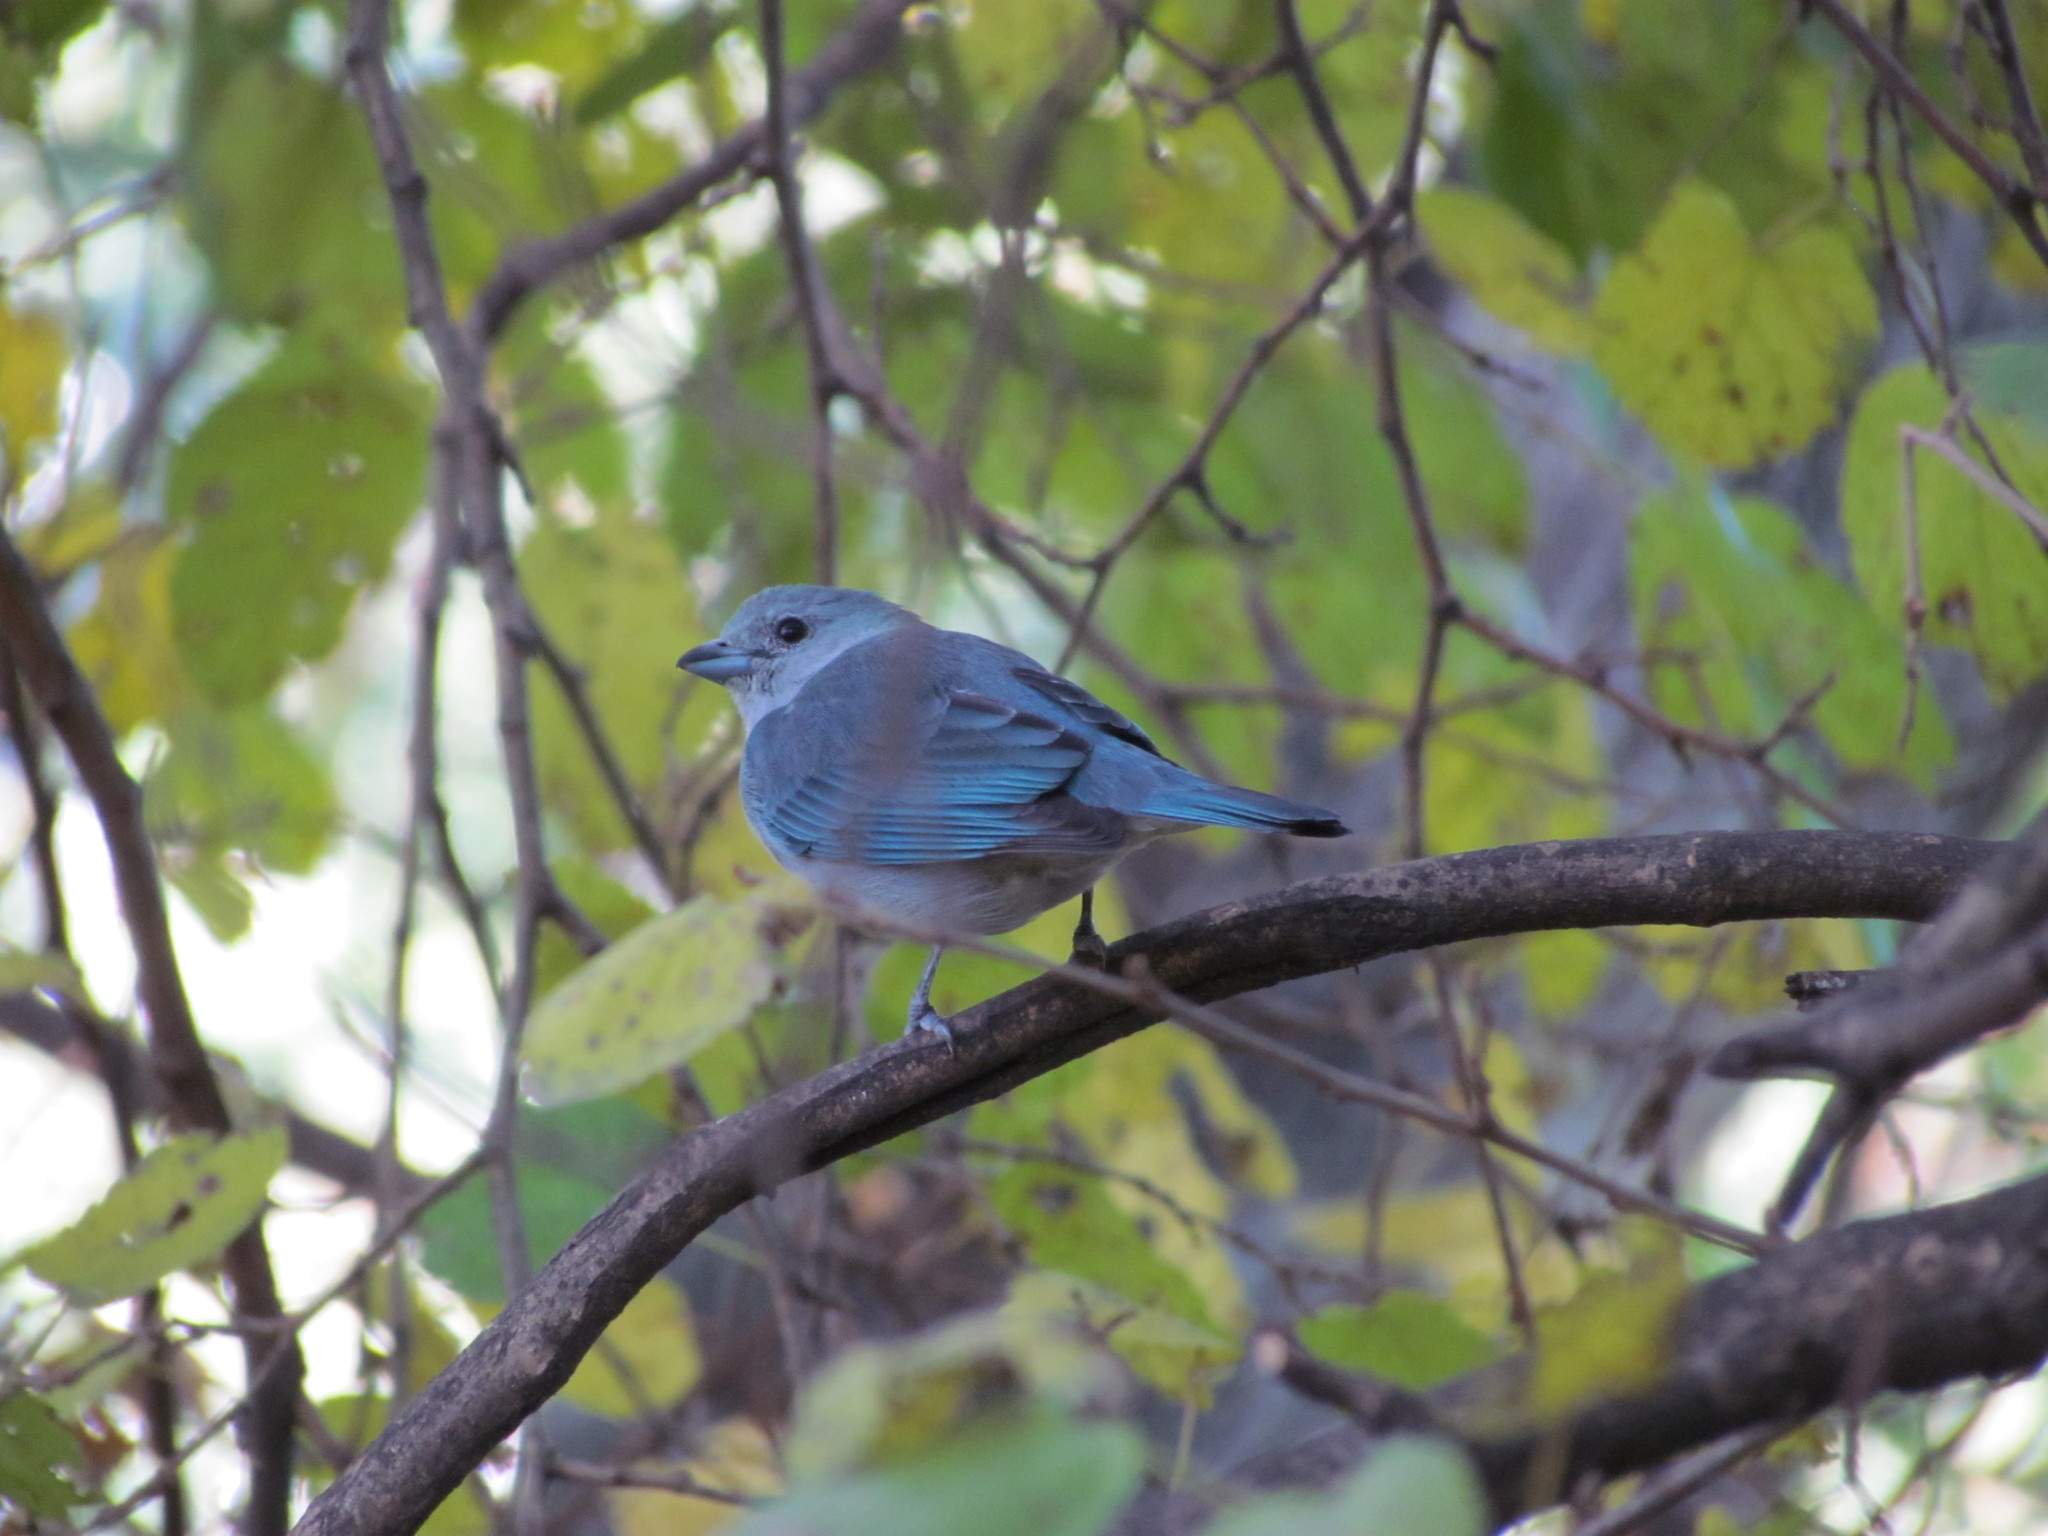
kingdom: Animalia
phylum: Chordata
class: Aves
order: Passeriformes
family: Thraupidae
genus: Thraupis
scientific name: Thraupis sayaca
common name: Sayaca tanager
